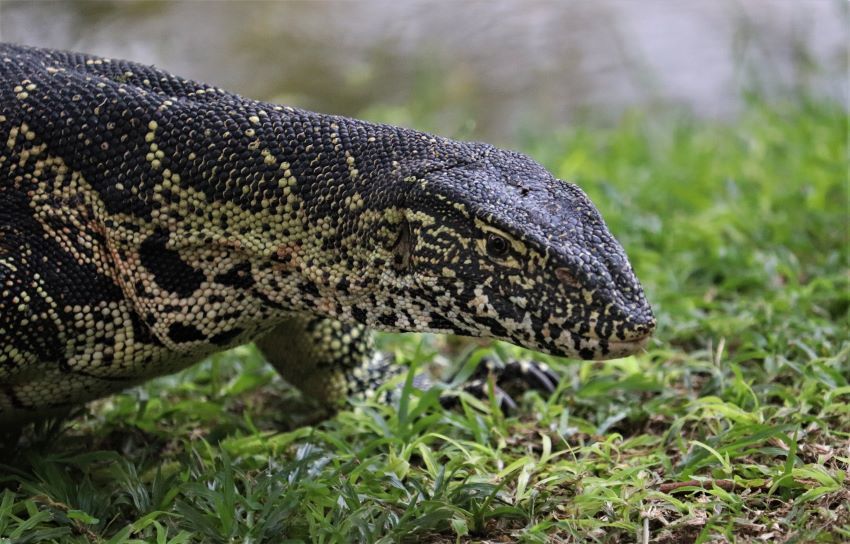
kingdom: Animalia
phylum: Chordata
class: Squamata
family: Varanidae
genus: Varanus
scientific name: Varanus niloticus
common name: Nile monitor
